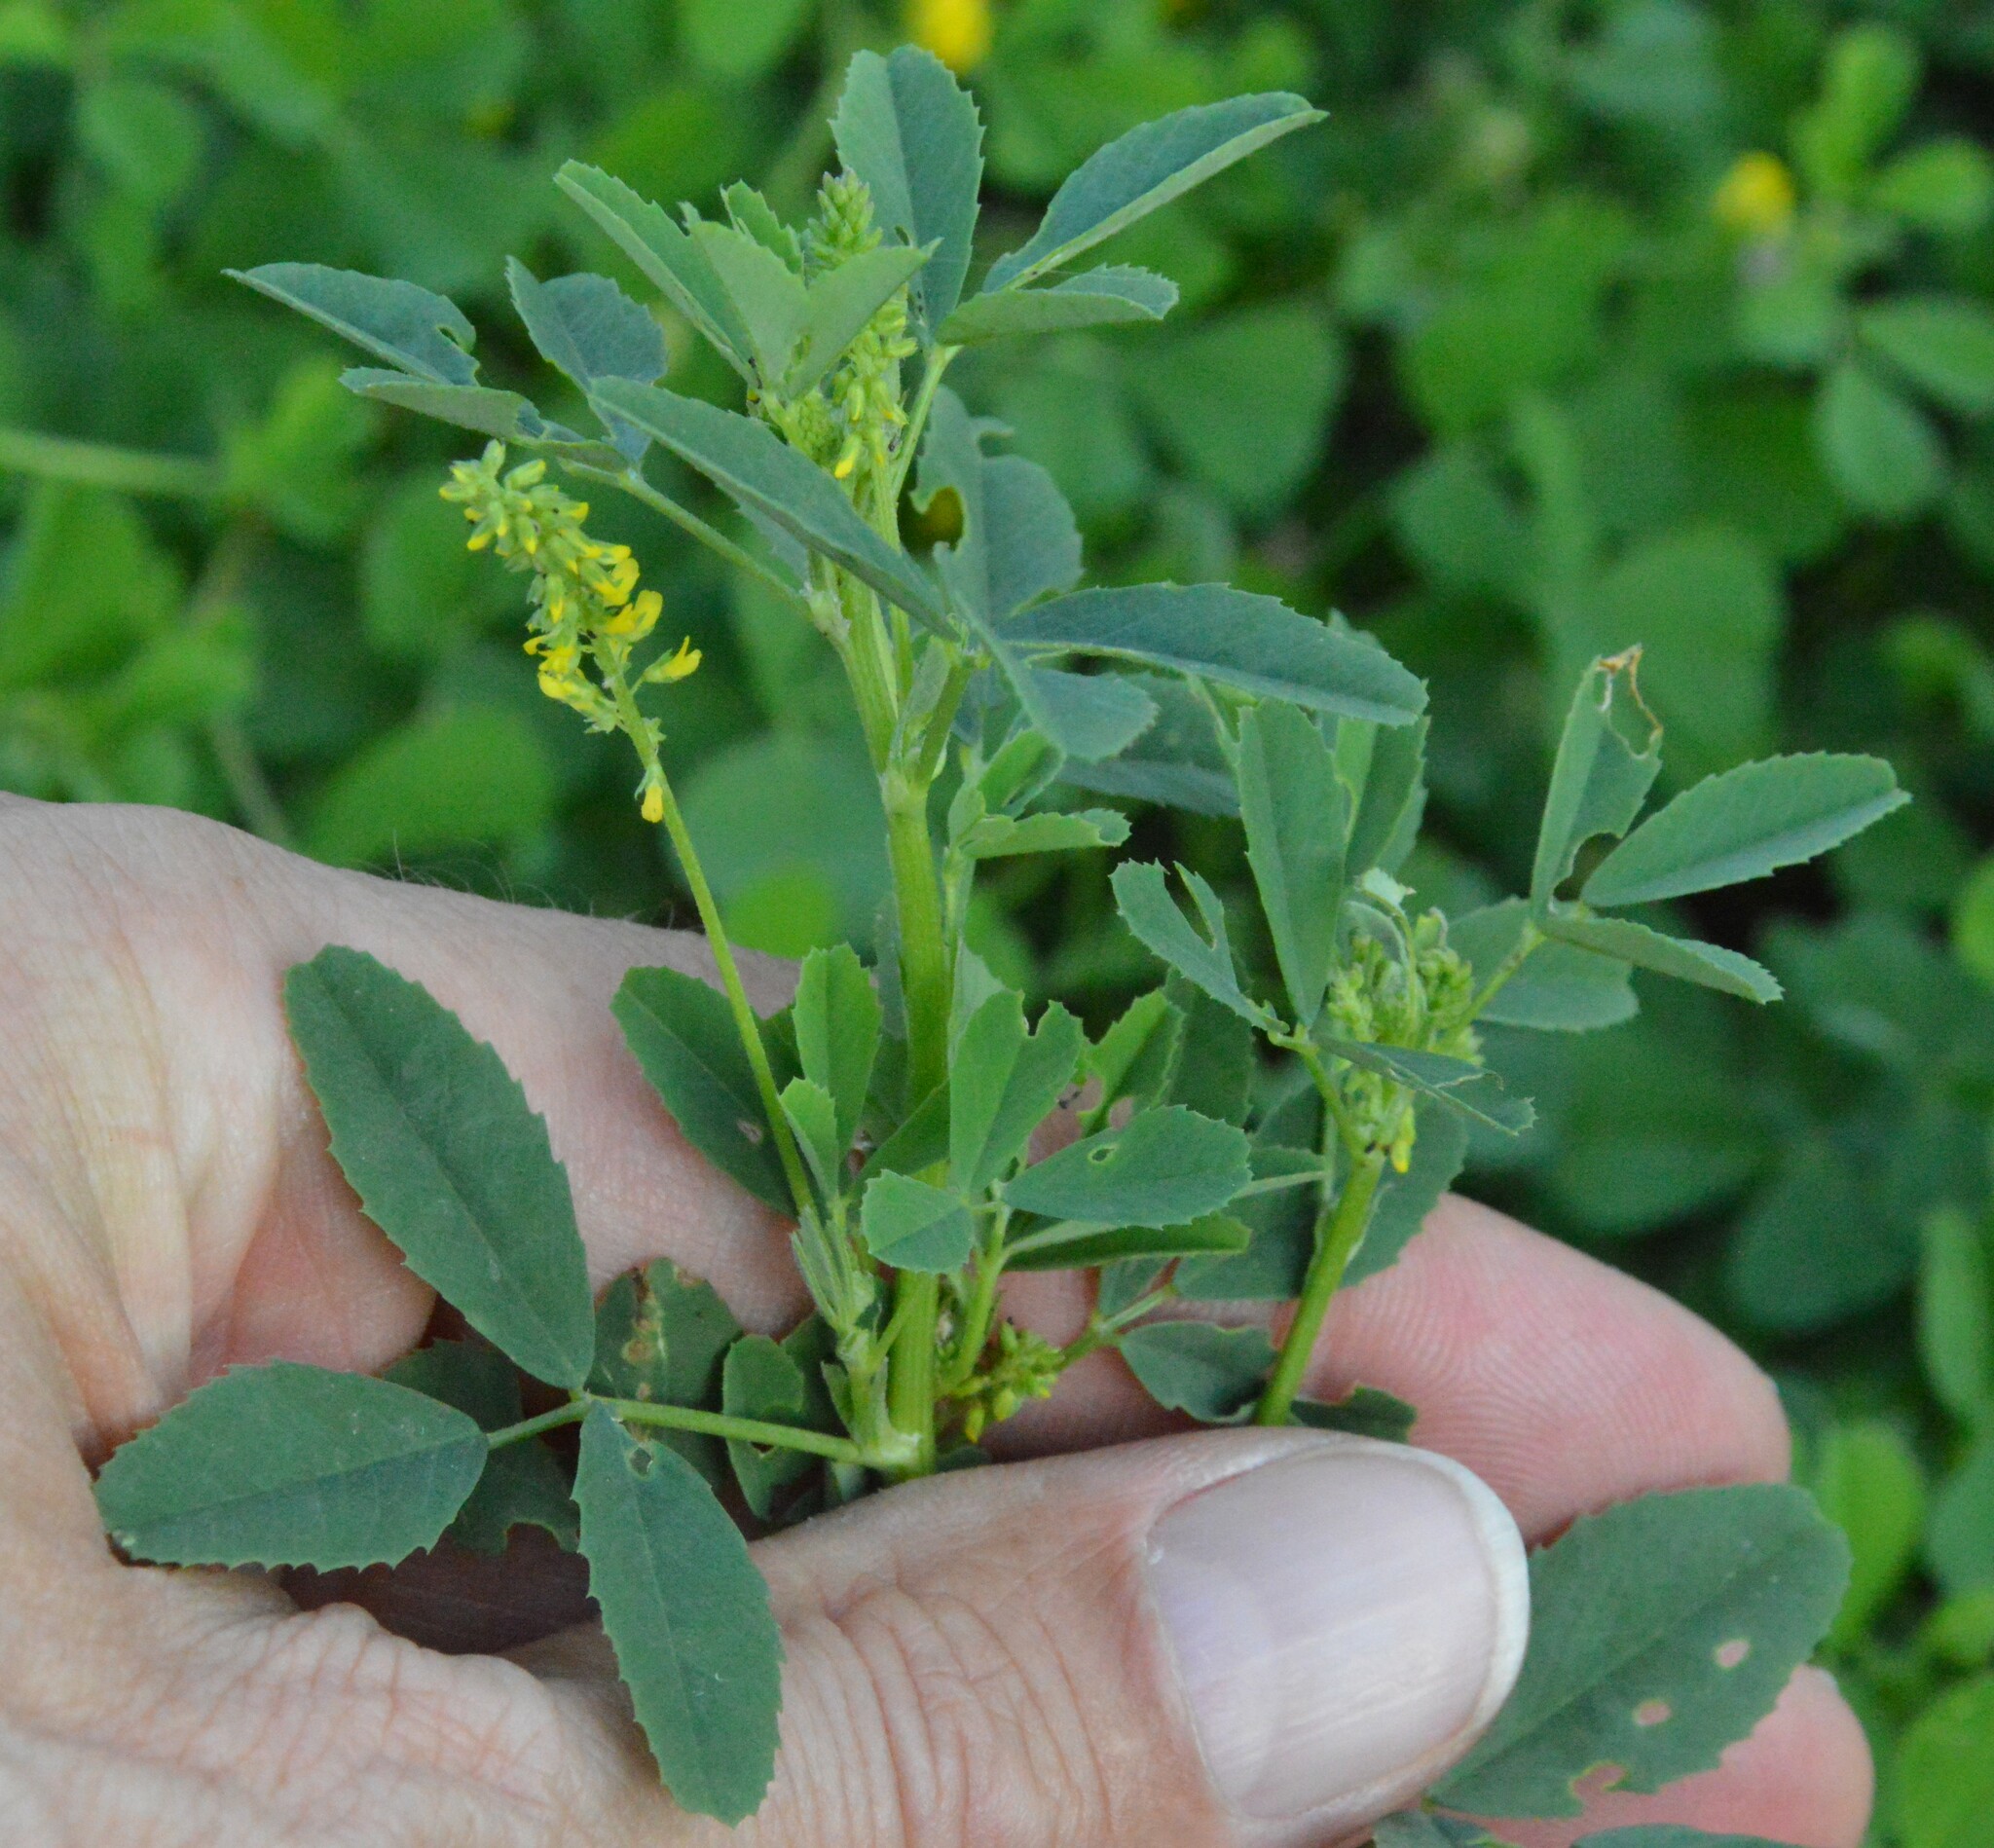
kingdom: Plantae
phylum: Tracheophyta
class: Magnoliopsida
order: Fabales
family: Fabaceae
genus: Melilotus
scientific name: Melilotus indicus
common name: Small melilot
